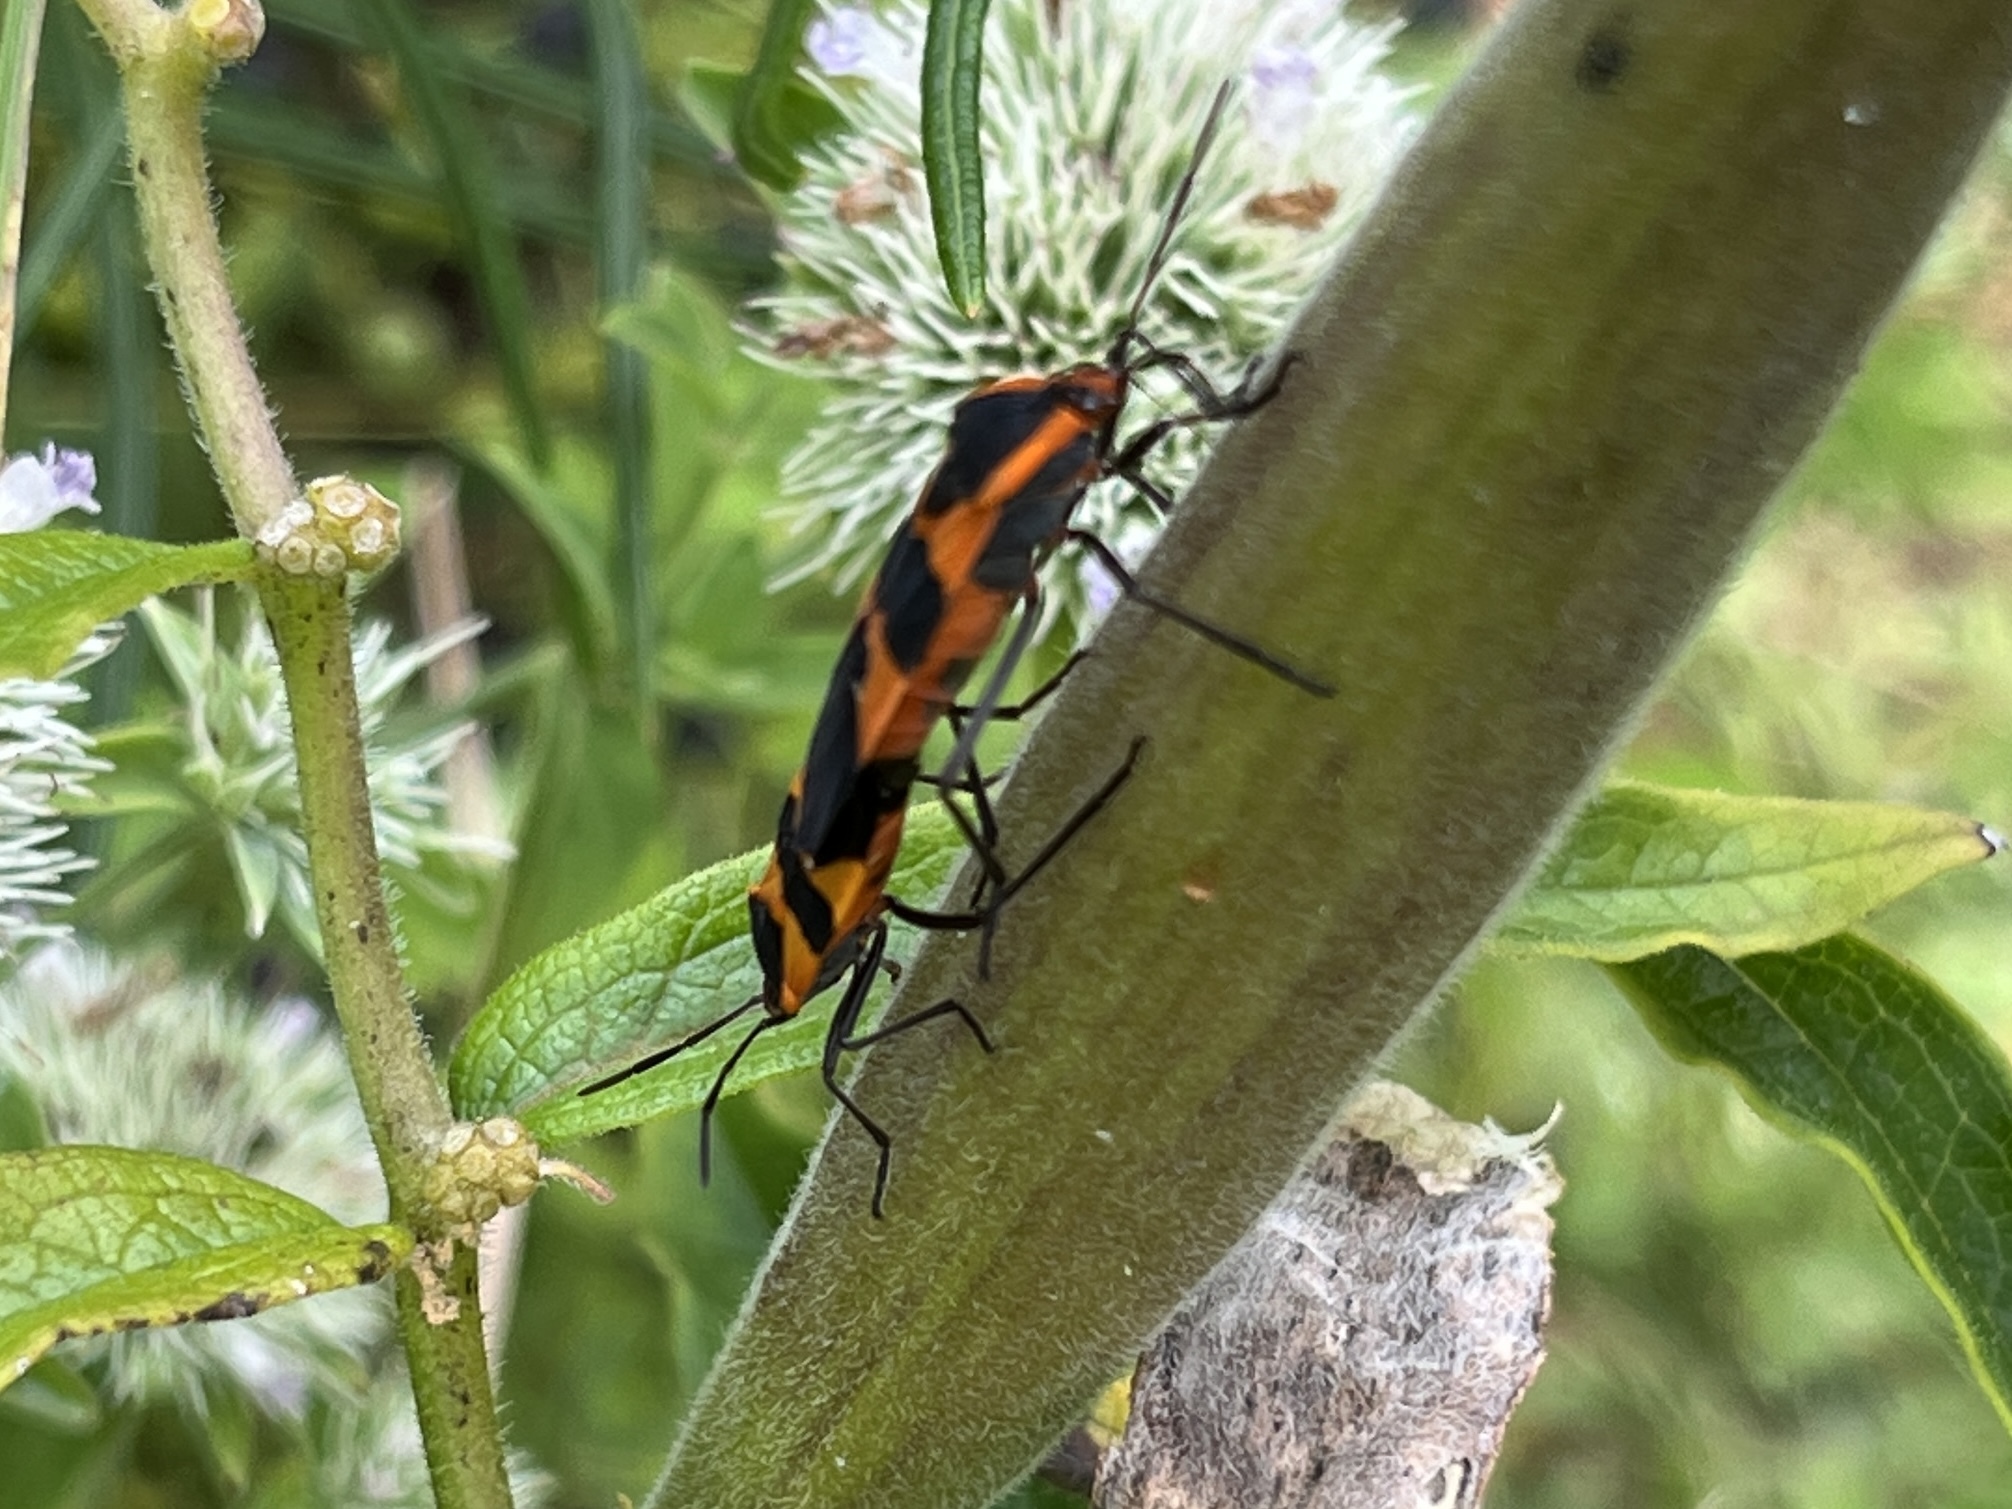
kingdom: Animalia
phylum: Arthropoda
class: Insecta
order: Hemiptera
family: Lygaeidae
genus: Oncopeltus
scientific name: Oncopeltus fasciatus
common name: Large milkweed bug
